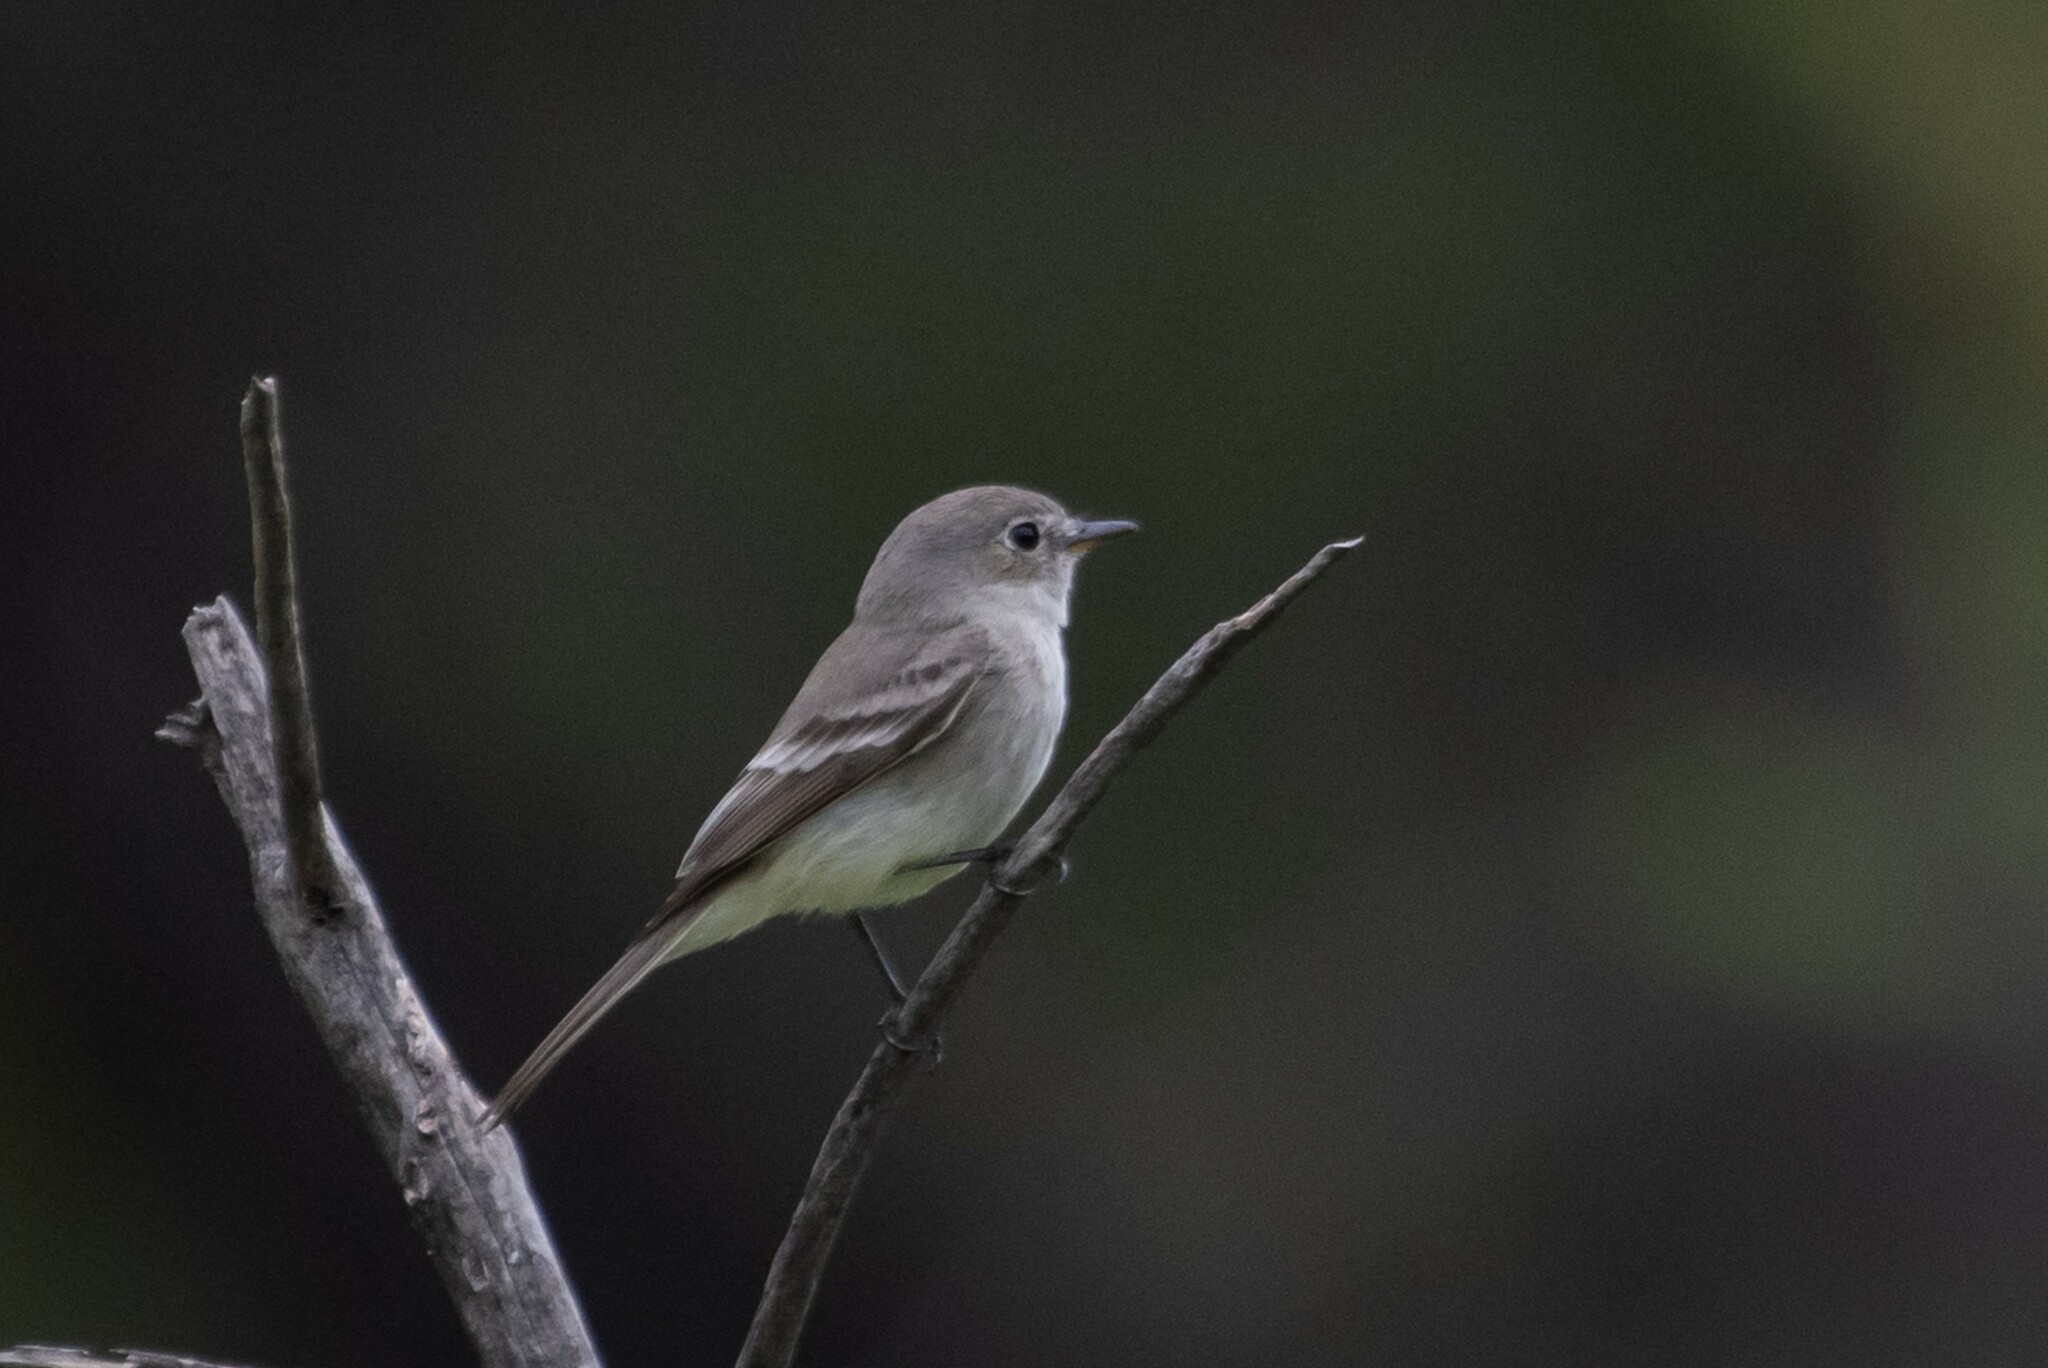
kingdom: Animalia
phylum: Chordata
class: Aves
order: Passeriformes
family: Tyrannidae
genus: Empidonax
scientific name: Empidonax wrightii
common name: Gray flycatcher
